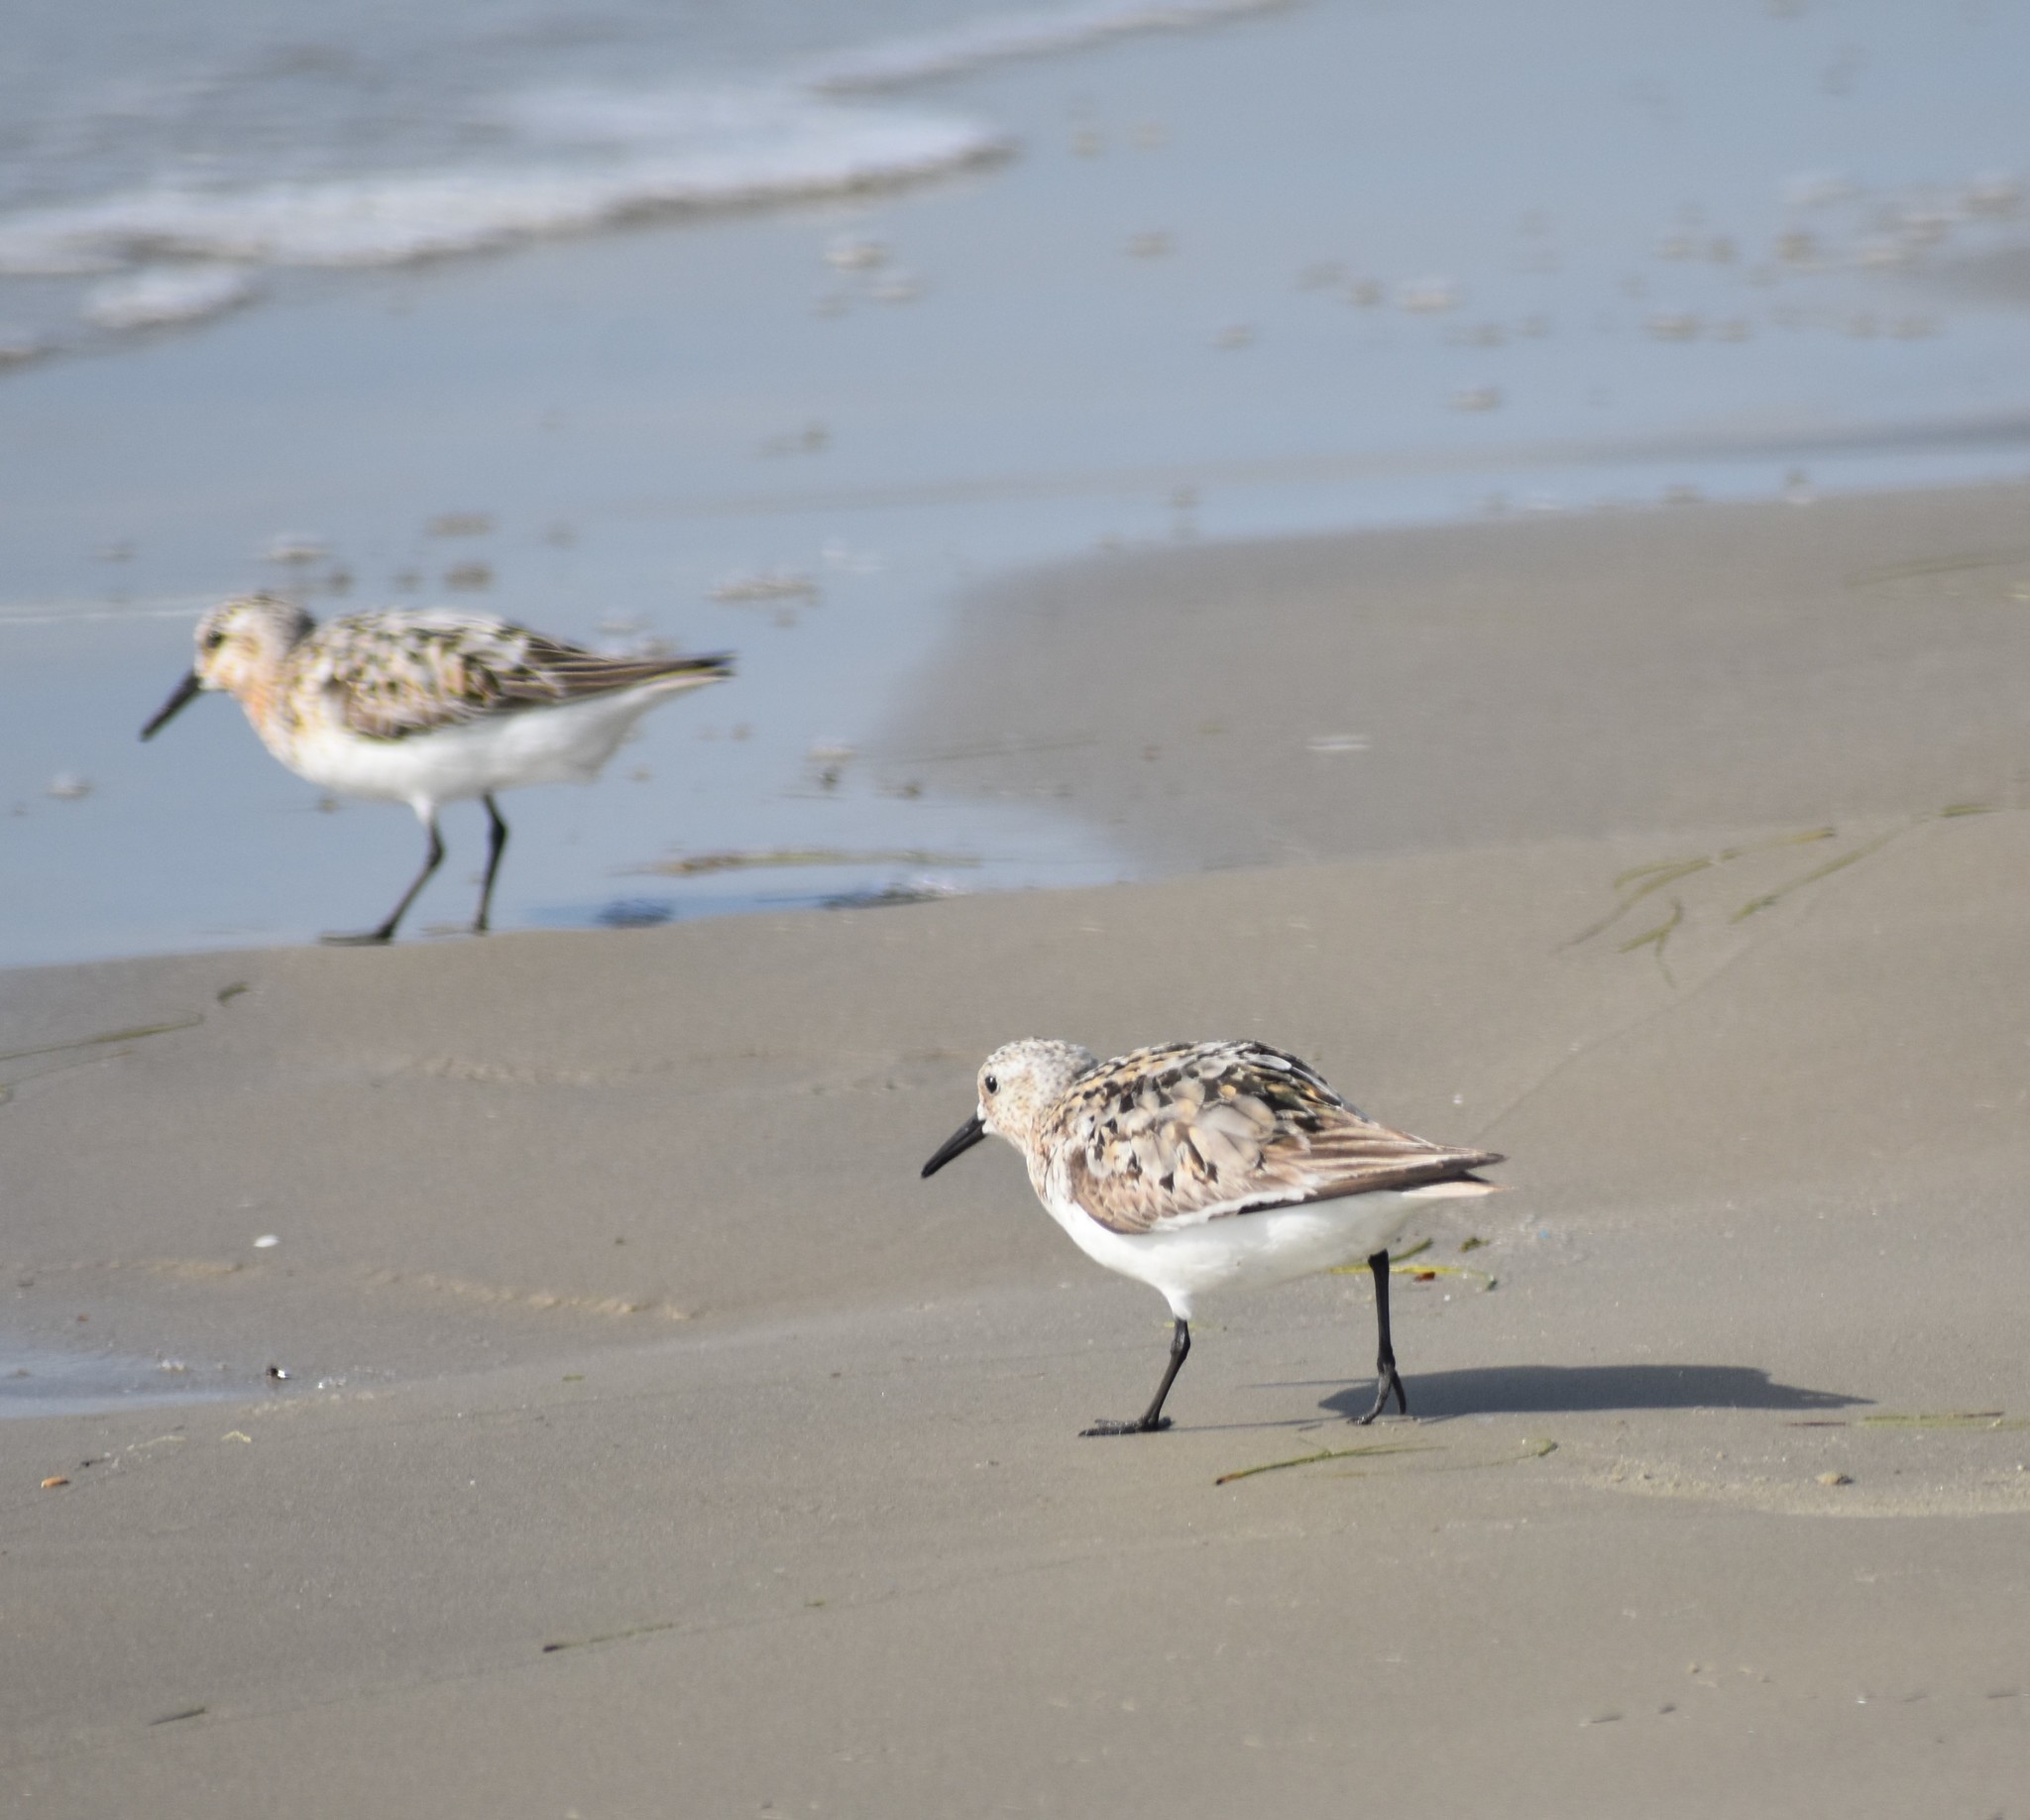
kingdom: Animalia
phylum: Chordata
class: Aves
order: Charadriiformes
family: Scolopacidae
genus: Calidris
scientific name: Calidris alba
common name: Sanderling
